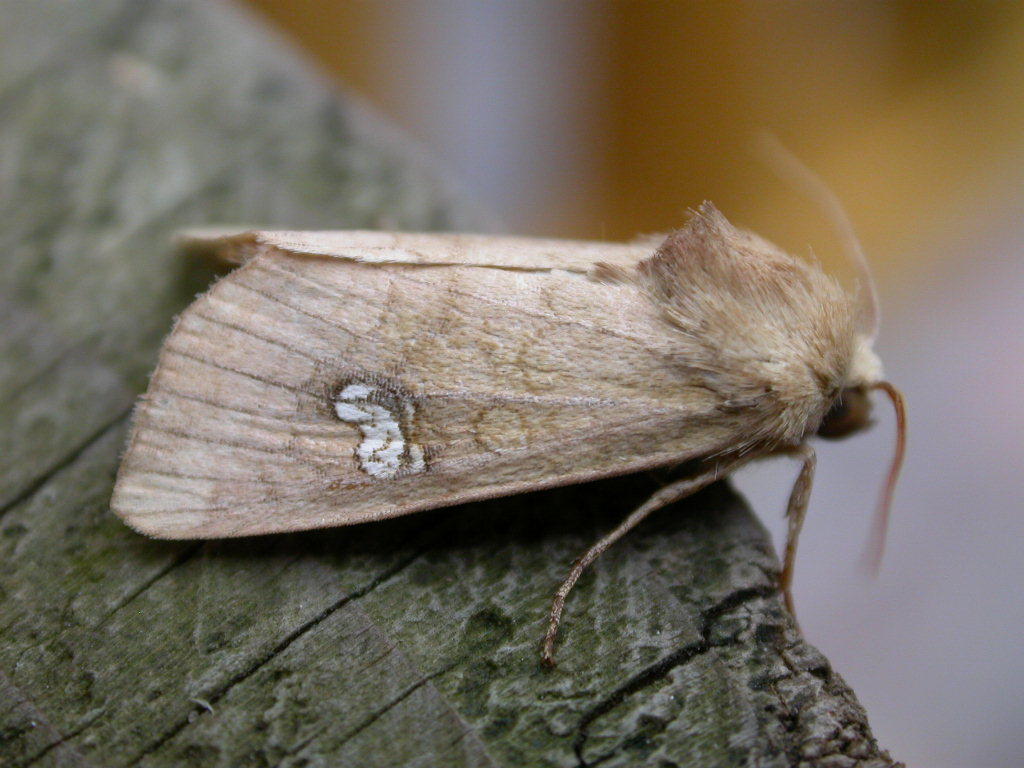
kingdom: Animalia
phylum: Arthropoda
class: Insecta
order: Lepidoptera
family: Noctuidae
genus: Amphipoea
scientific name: Amphipoea
